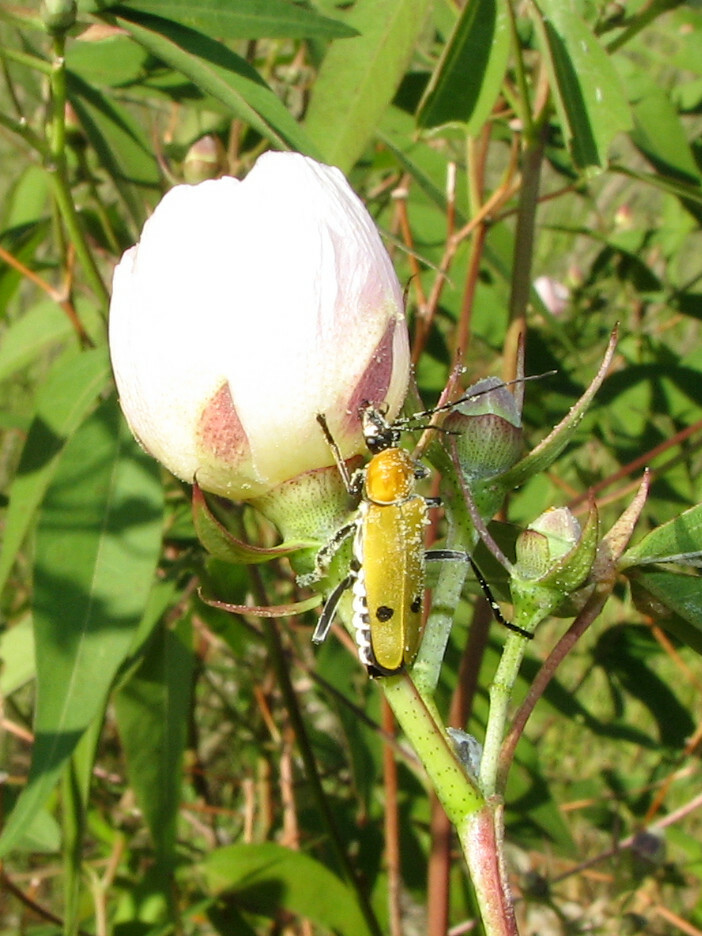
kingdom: Animalia
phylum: Arthropoda
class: Insecta
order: Coleoptera
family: Cantharidae
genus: Chauliognathus
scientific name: Chauliognathus misellus
